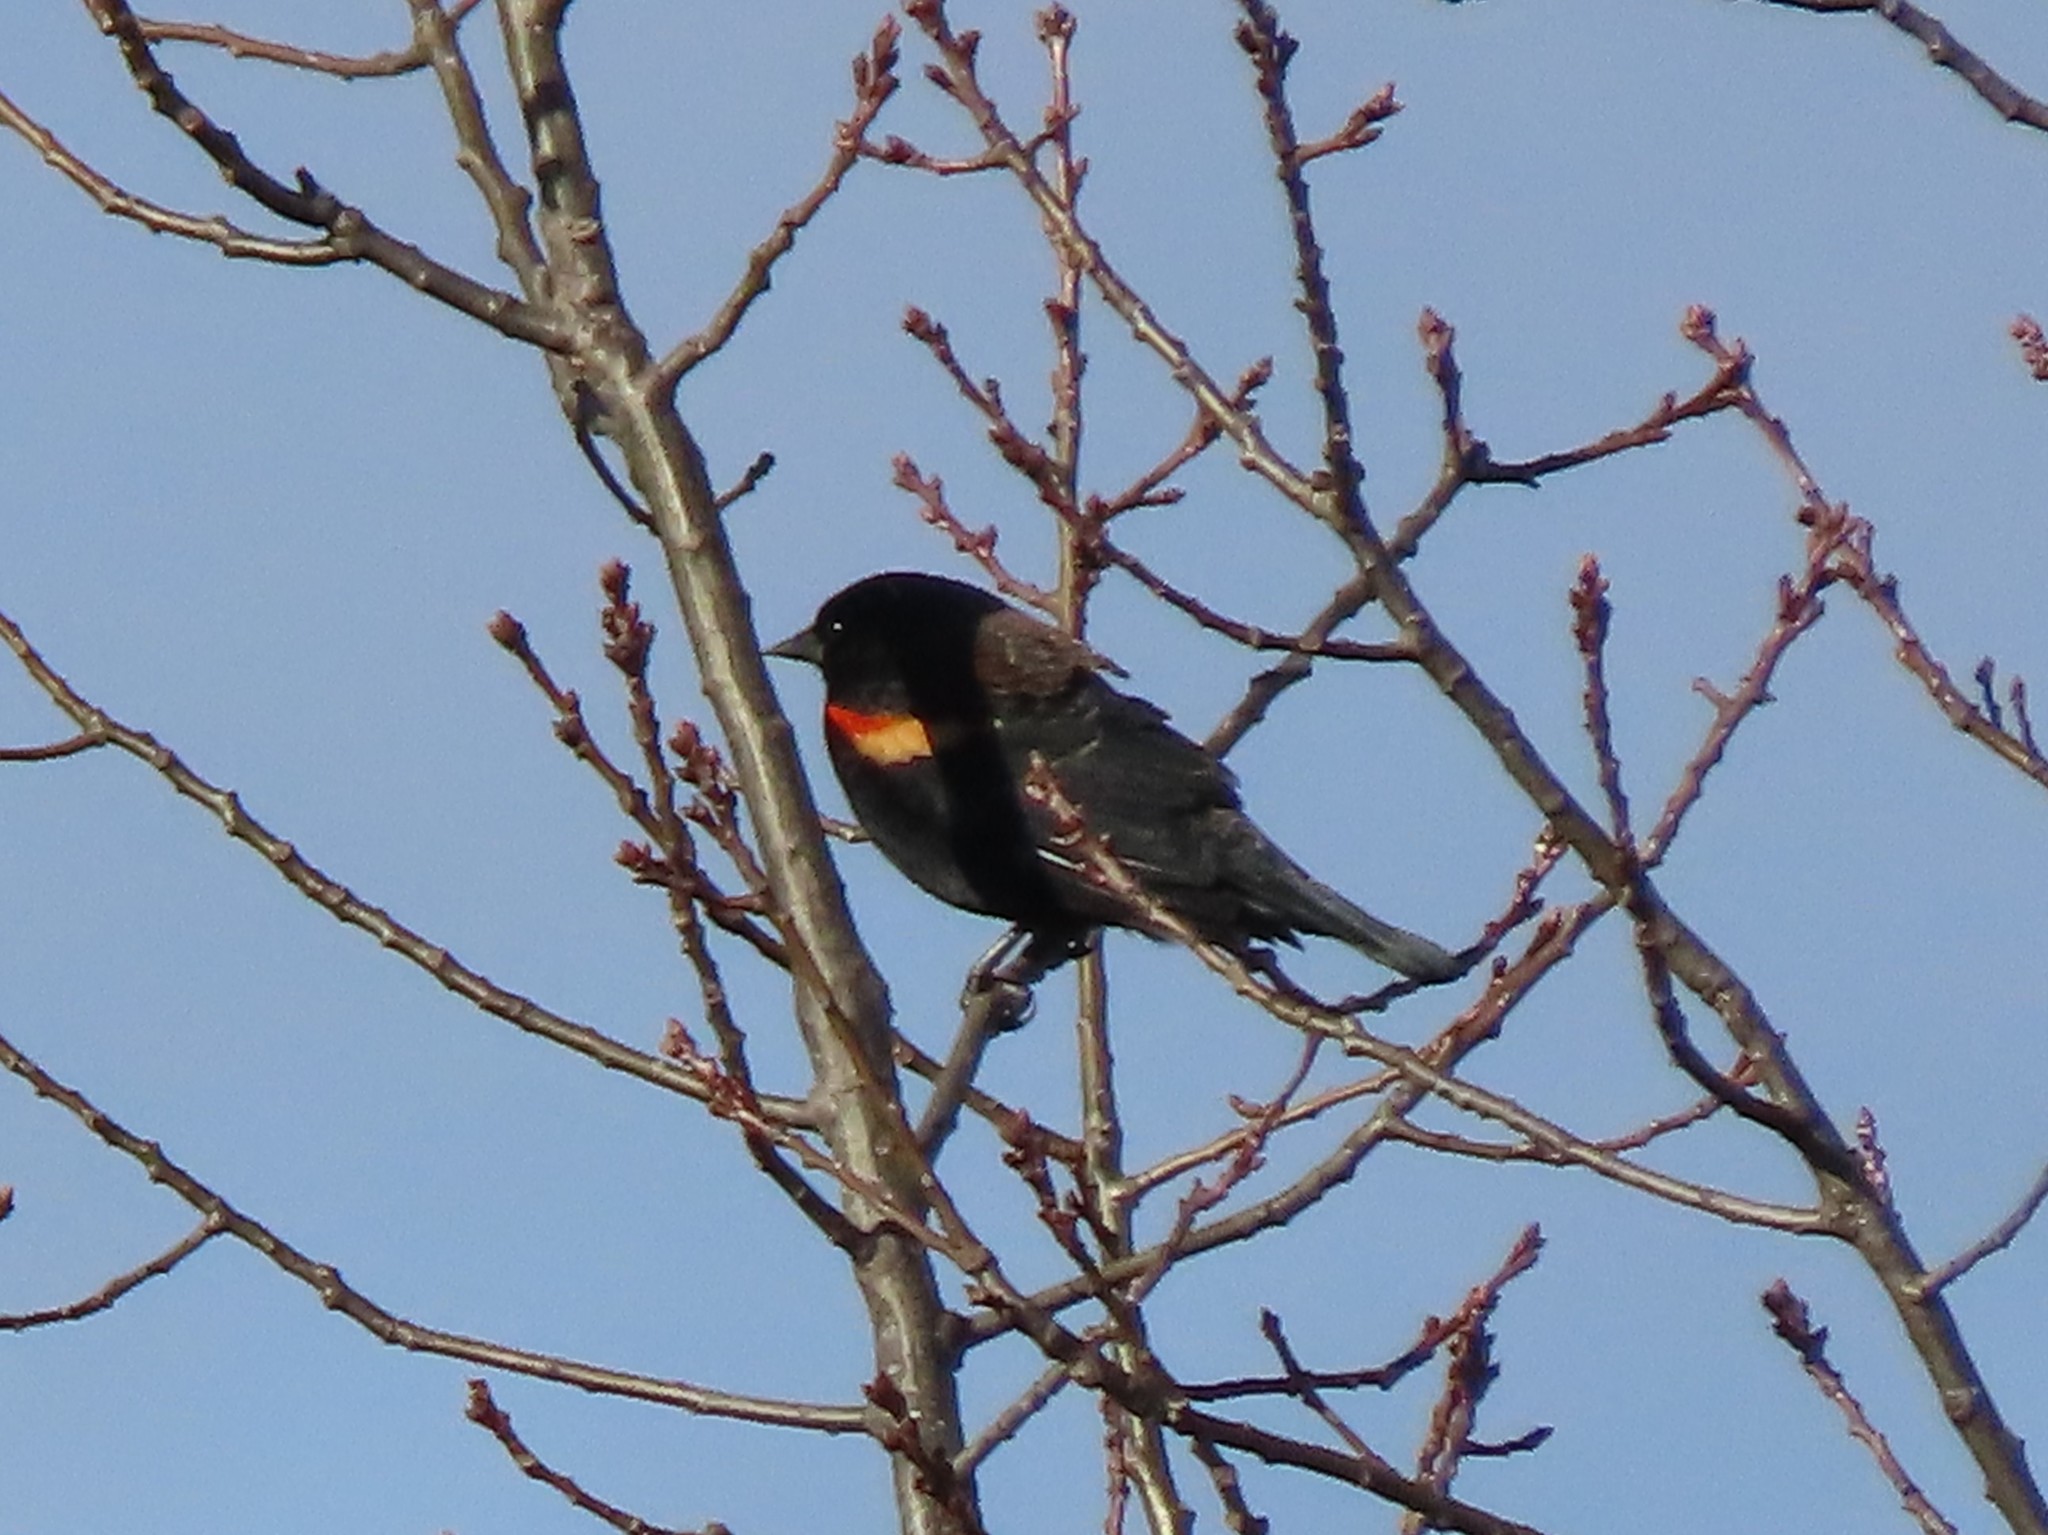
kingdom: Animalia
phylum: Chordata
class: Aves
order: Passeriformes
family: Icteridae
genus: Agelaius
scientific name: Agelaius phoeniceus
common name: Red-winged blackbird
